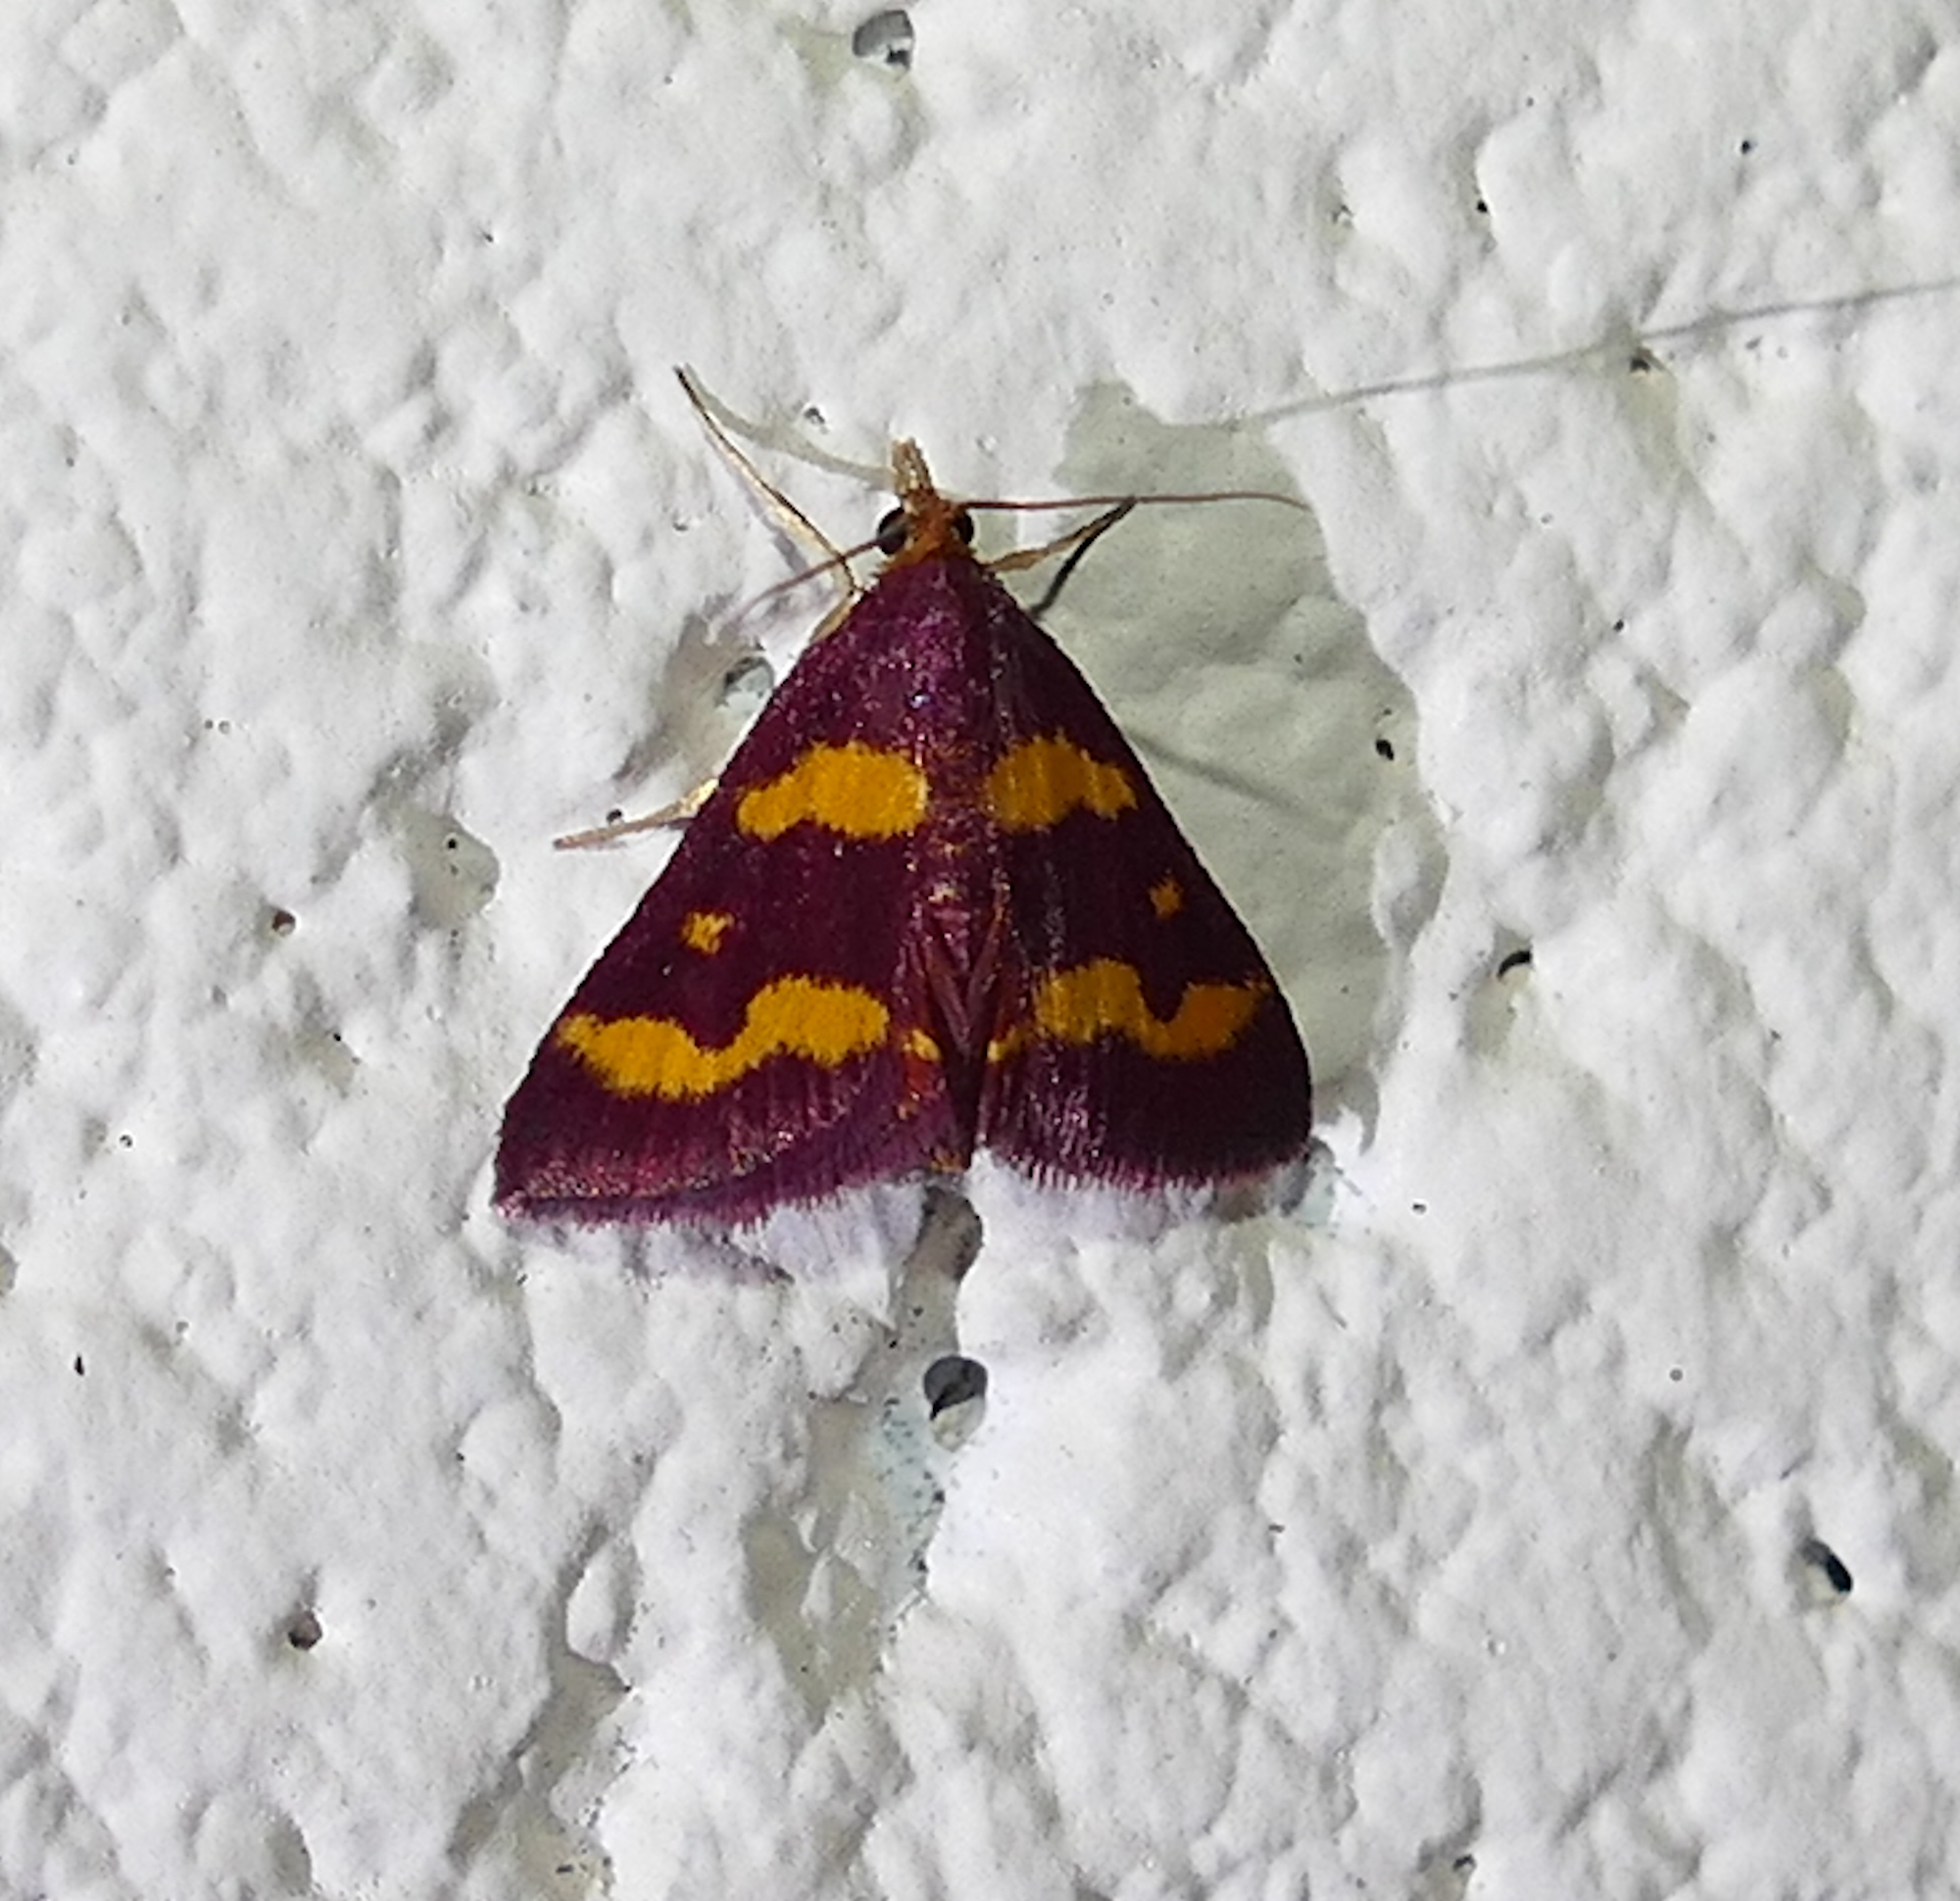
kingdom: Animalia
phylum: Arthropoda
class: Insecta
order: Lepidoptera
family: Crambidae
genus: Pyrausta
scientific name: Pyrausta tyralis
